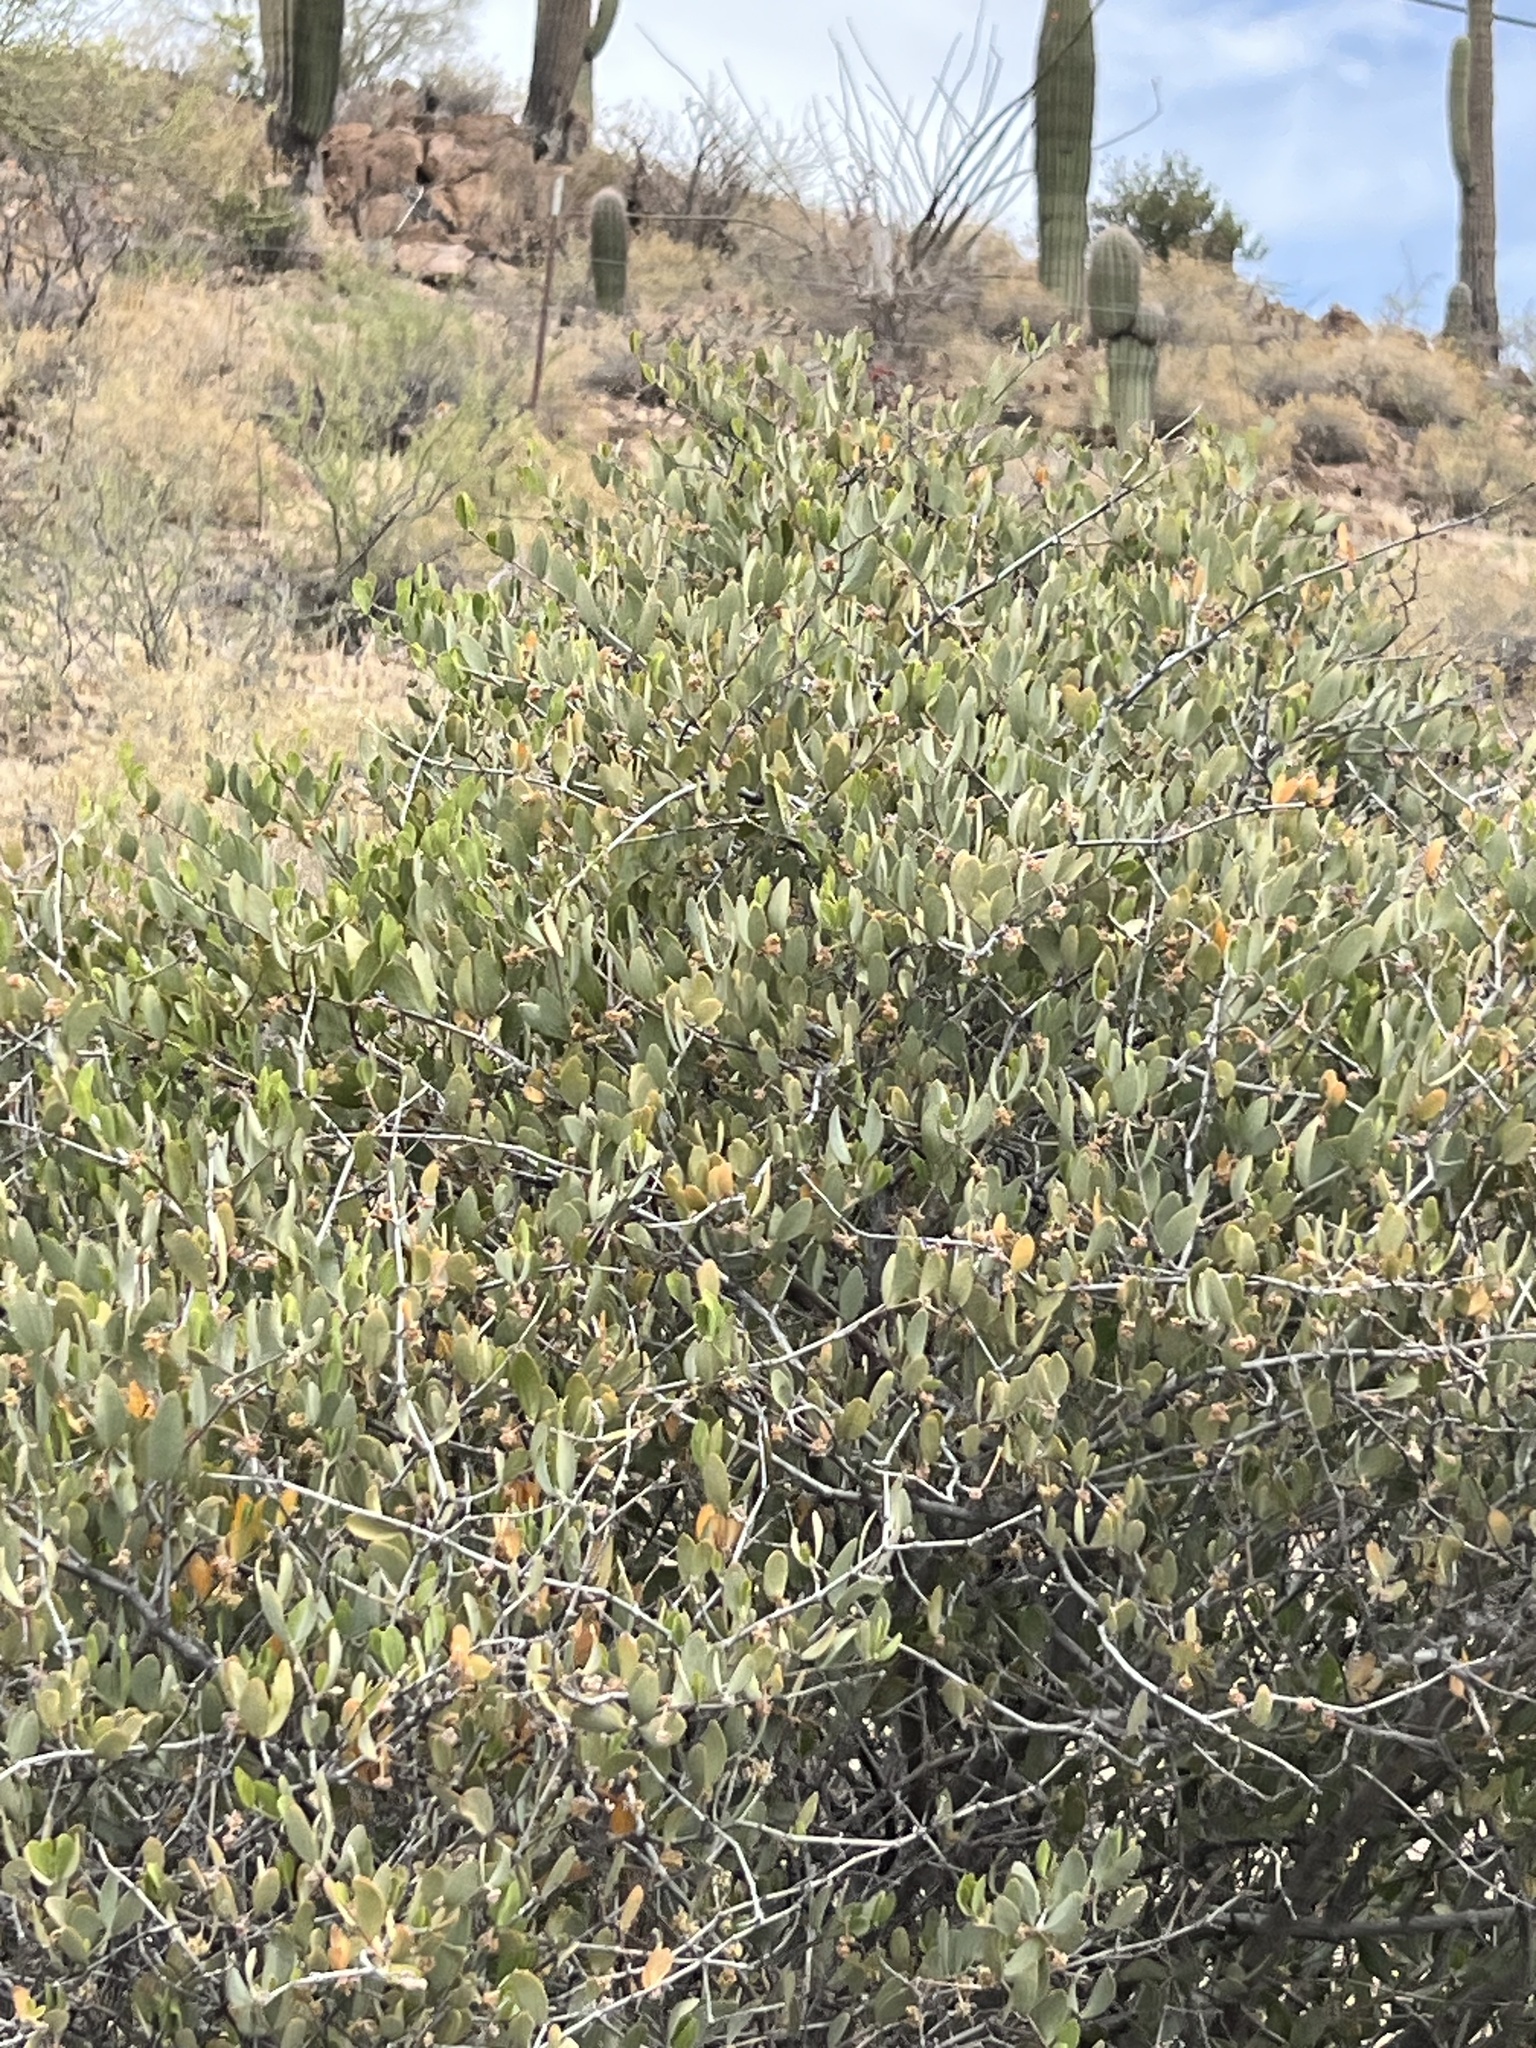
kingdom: Plantae
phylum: Tracheophyta
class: Magnoliopsida
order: Caryophyllales
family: Simmondsiaceae
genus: Simmondsia
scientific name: Simmondsia chinensis
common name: Jojoba
